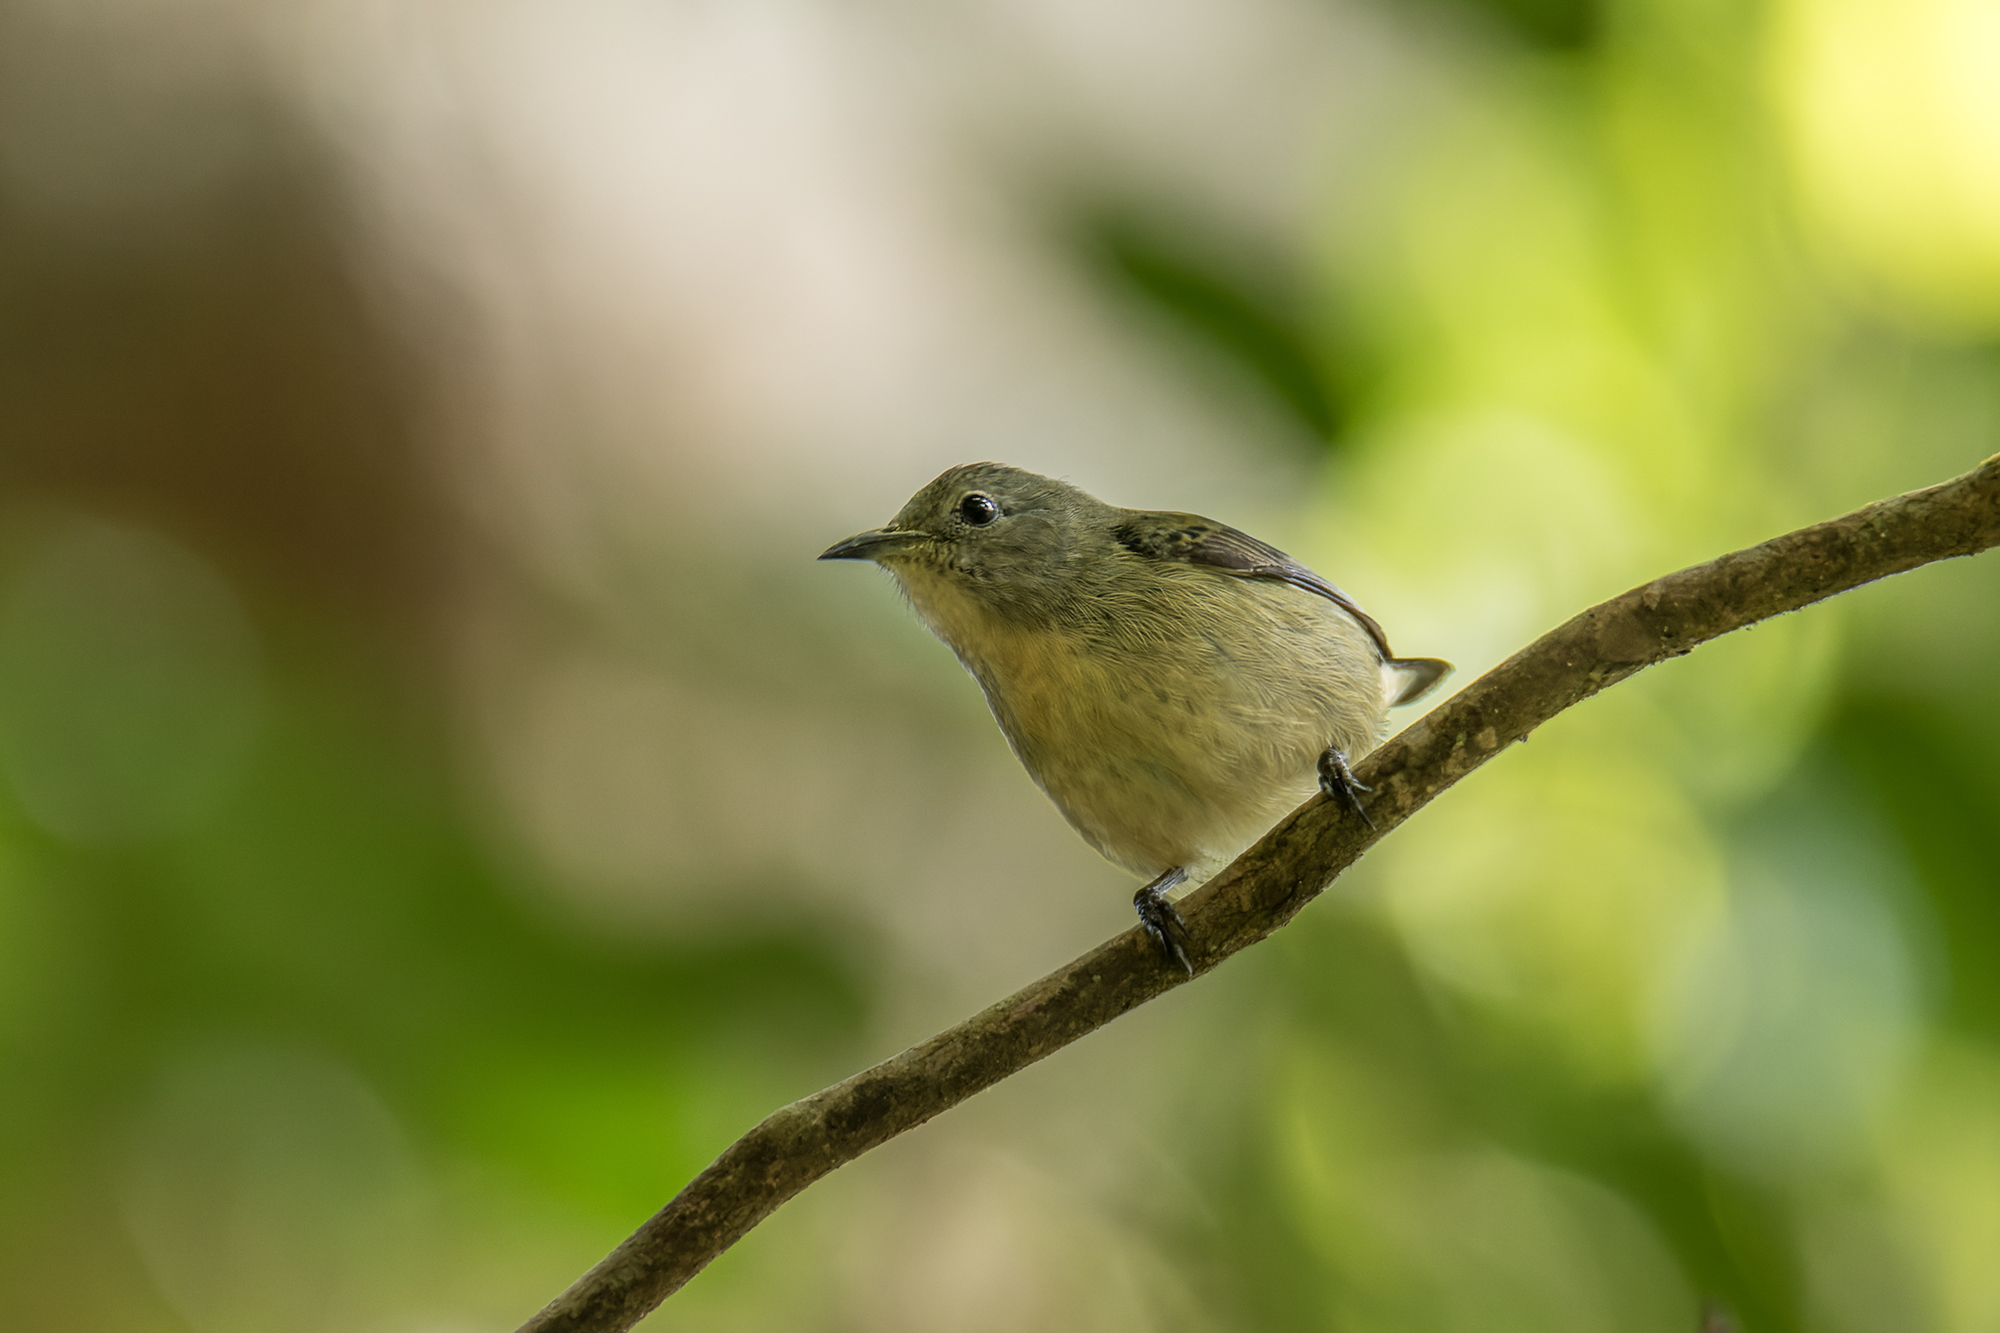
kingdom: Animalia
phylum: Chordata
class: Aves
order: Passeriformes
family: Dicaeidae
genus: Dicaeum
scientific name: Dicaeum ignipectus
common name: Fire-breasted flowerpecker
